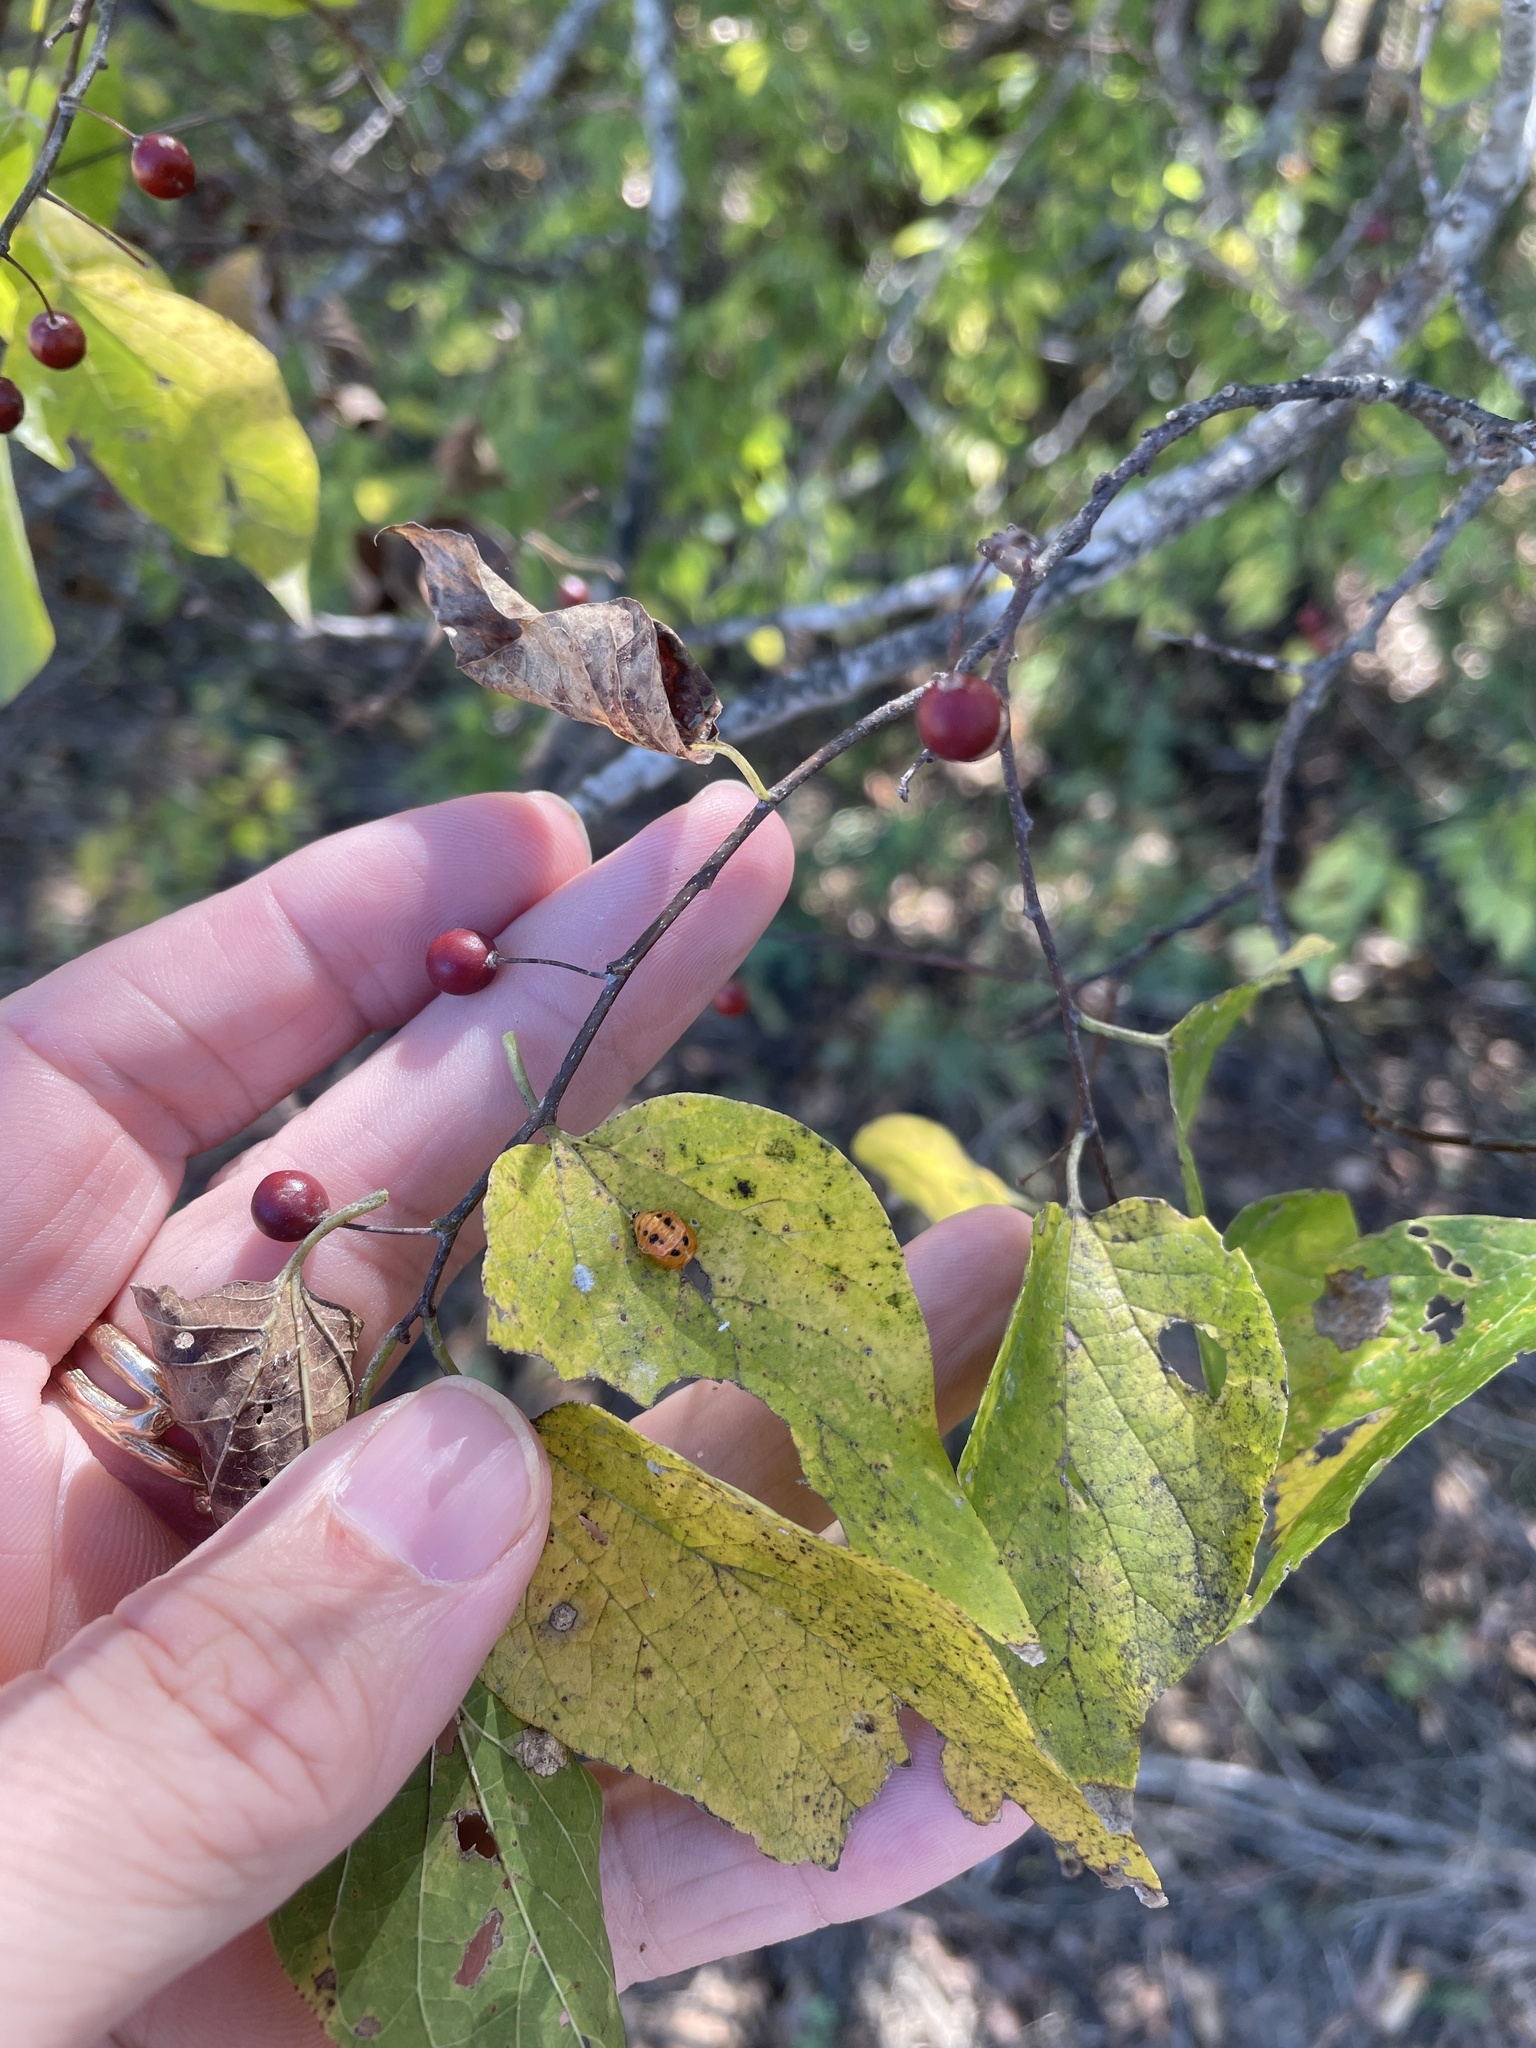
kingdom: Plantae
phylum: Tracheophyta
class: Magnoliopsida
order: Rosales
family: Cannabaceae
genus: Celtis
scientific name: Celtis laevigata
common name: Sugarberry
